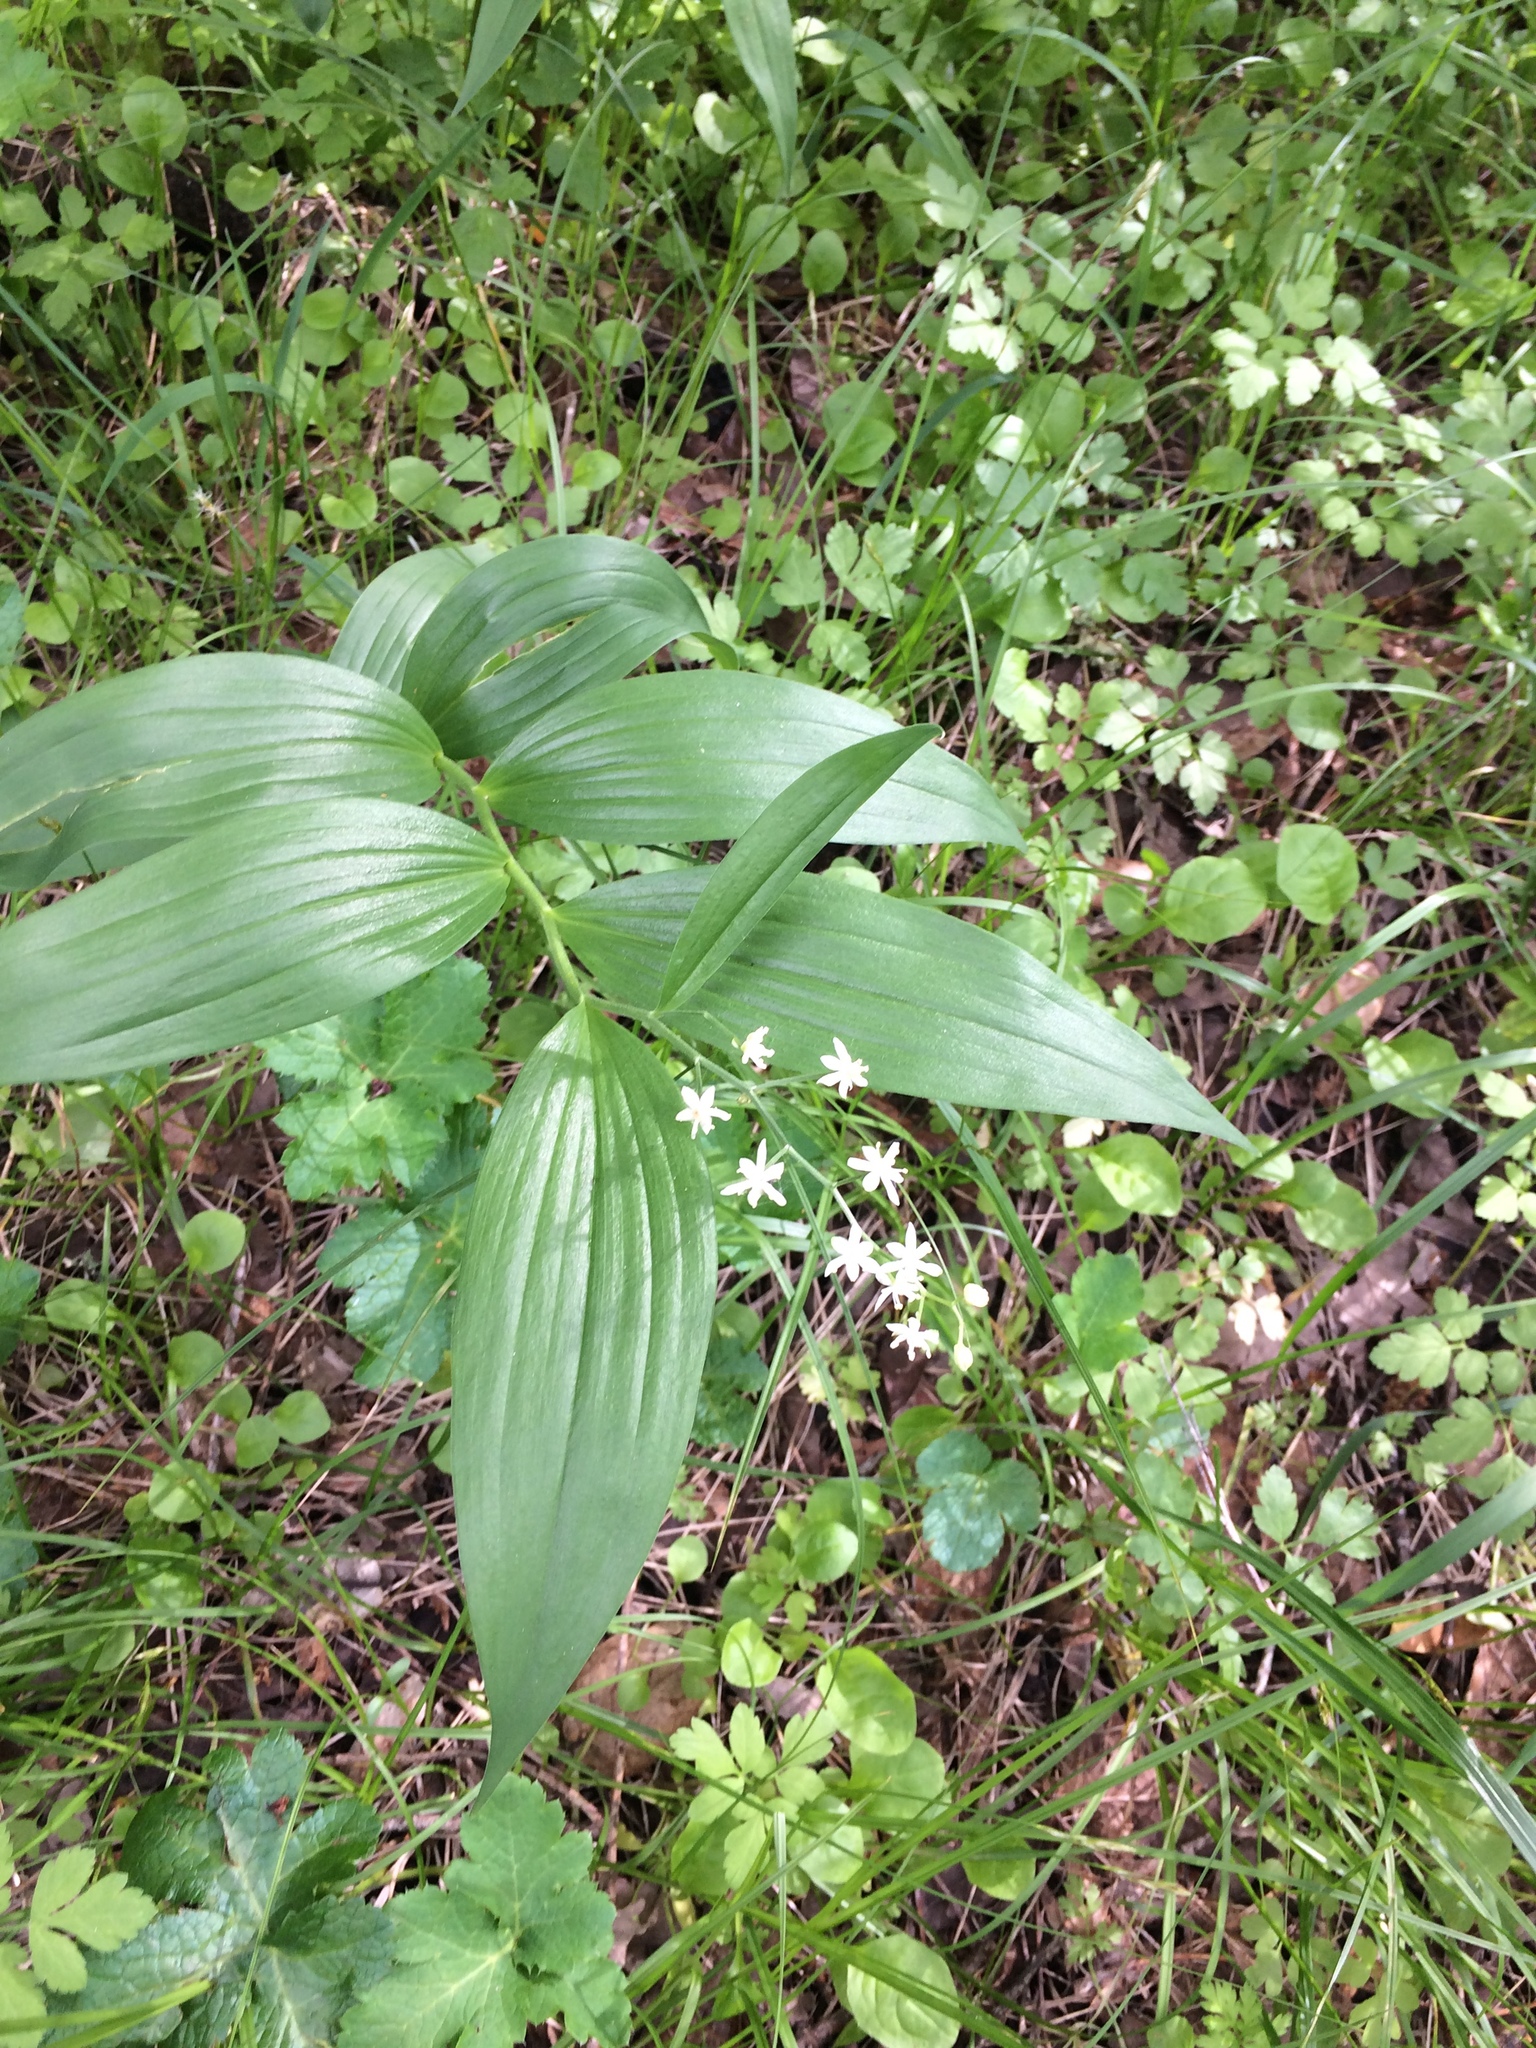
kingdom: Plantae
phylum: Tracheophyta
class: Liliopsida
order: Asparagales
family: Asparagaceae
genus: Maianthemum
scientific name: Maianthemum stellatum
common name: Little false solomon's seal
